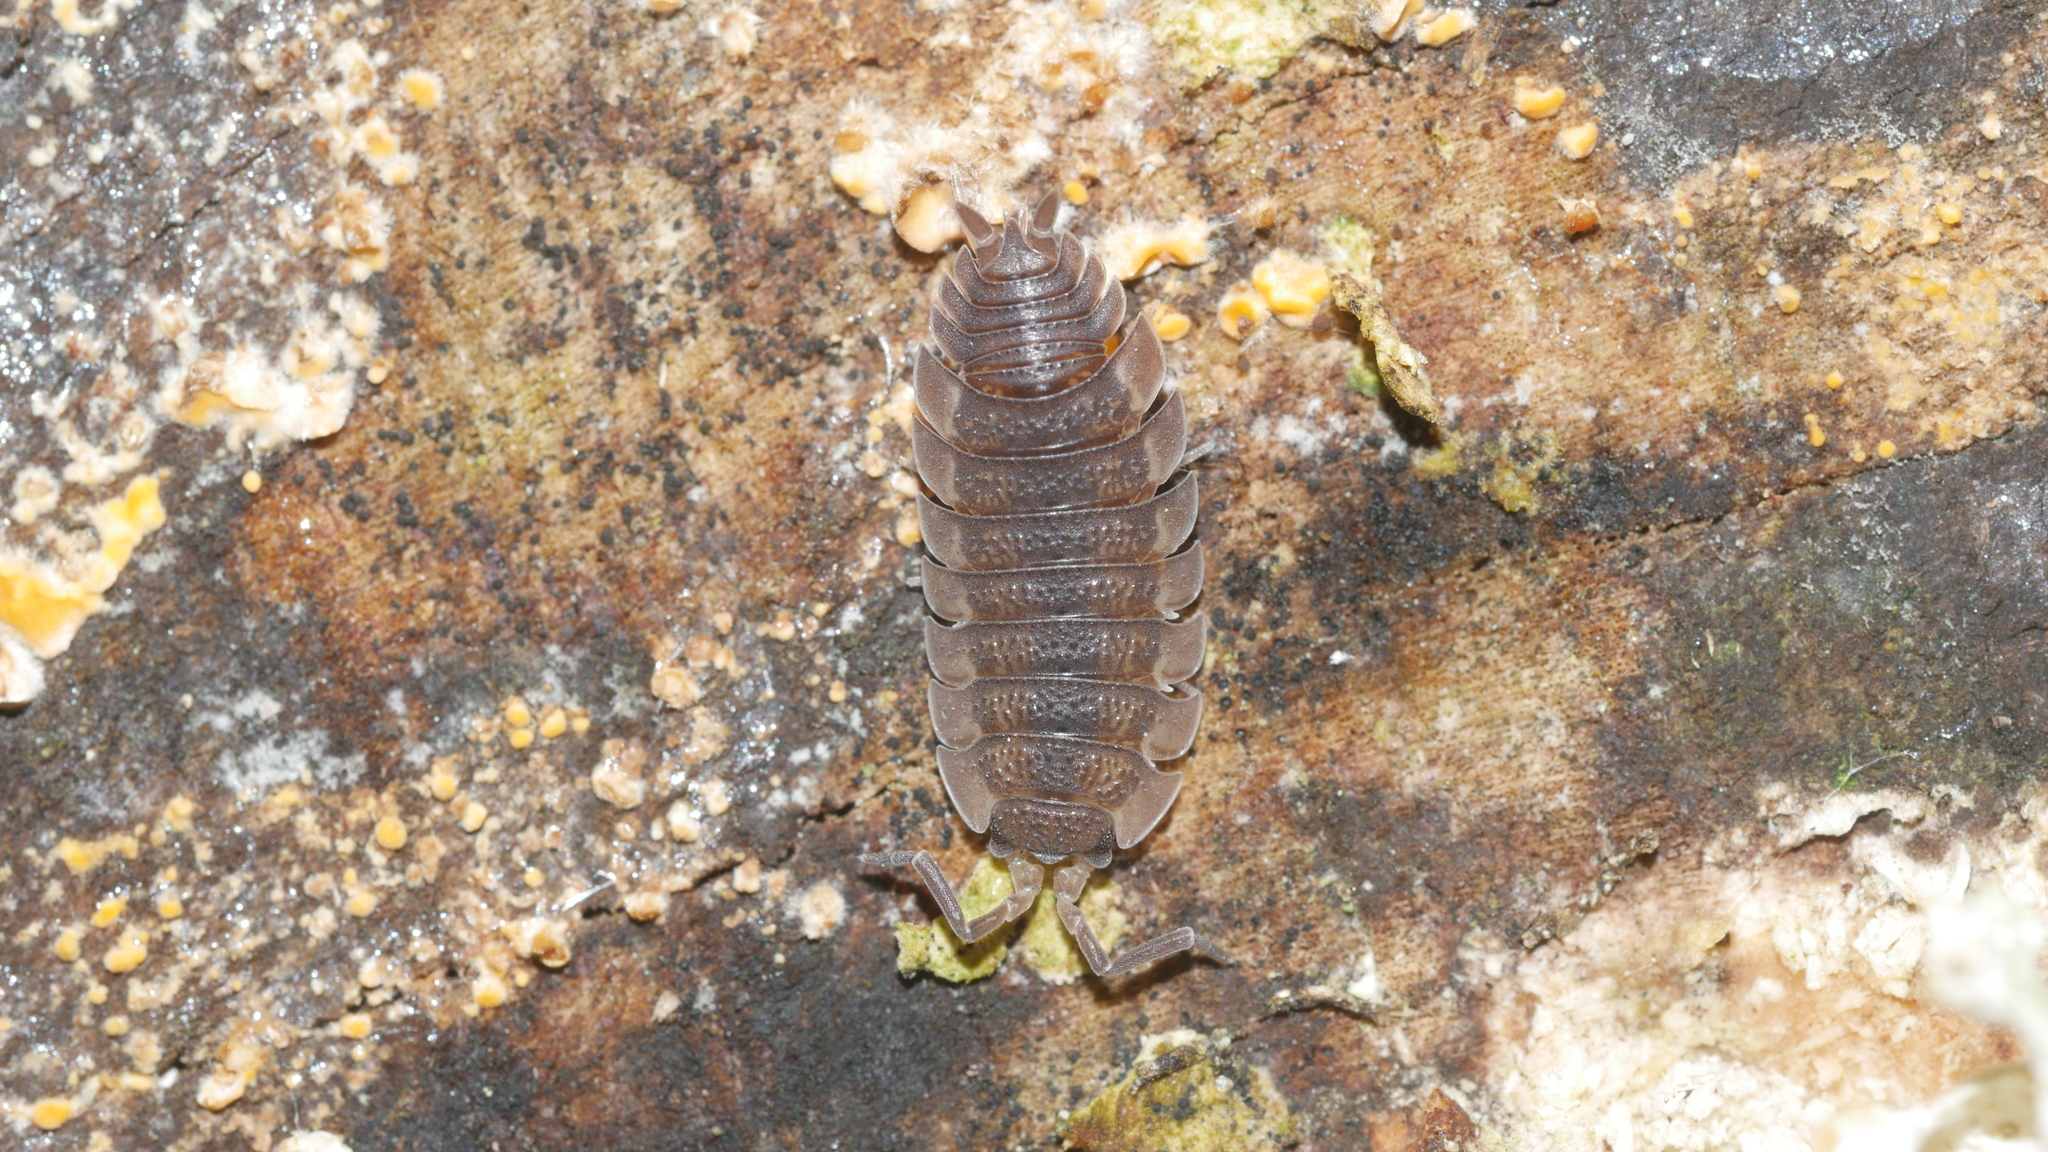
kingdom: Animalia
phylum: Arthropoda
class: Malacostraca
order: Isopoda
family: Porcellionidae
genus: Porcellio
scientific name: Porcellio scaber
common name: Common rough woodlouse
